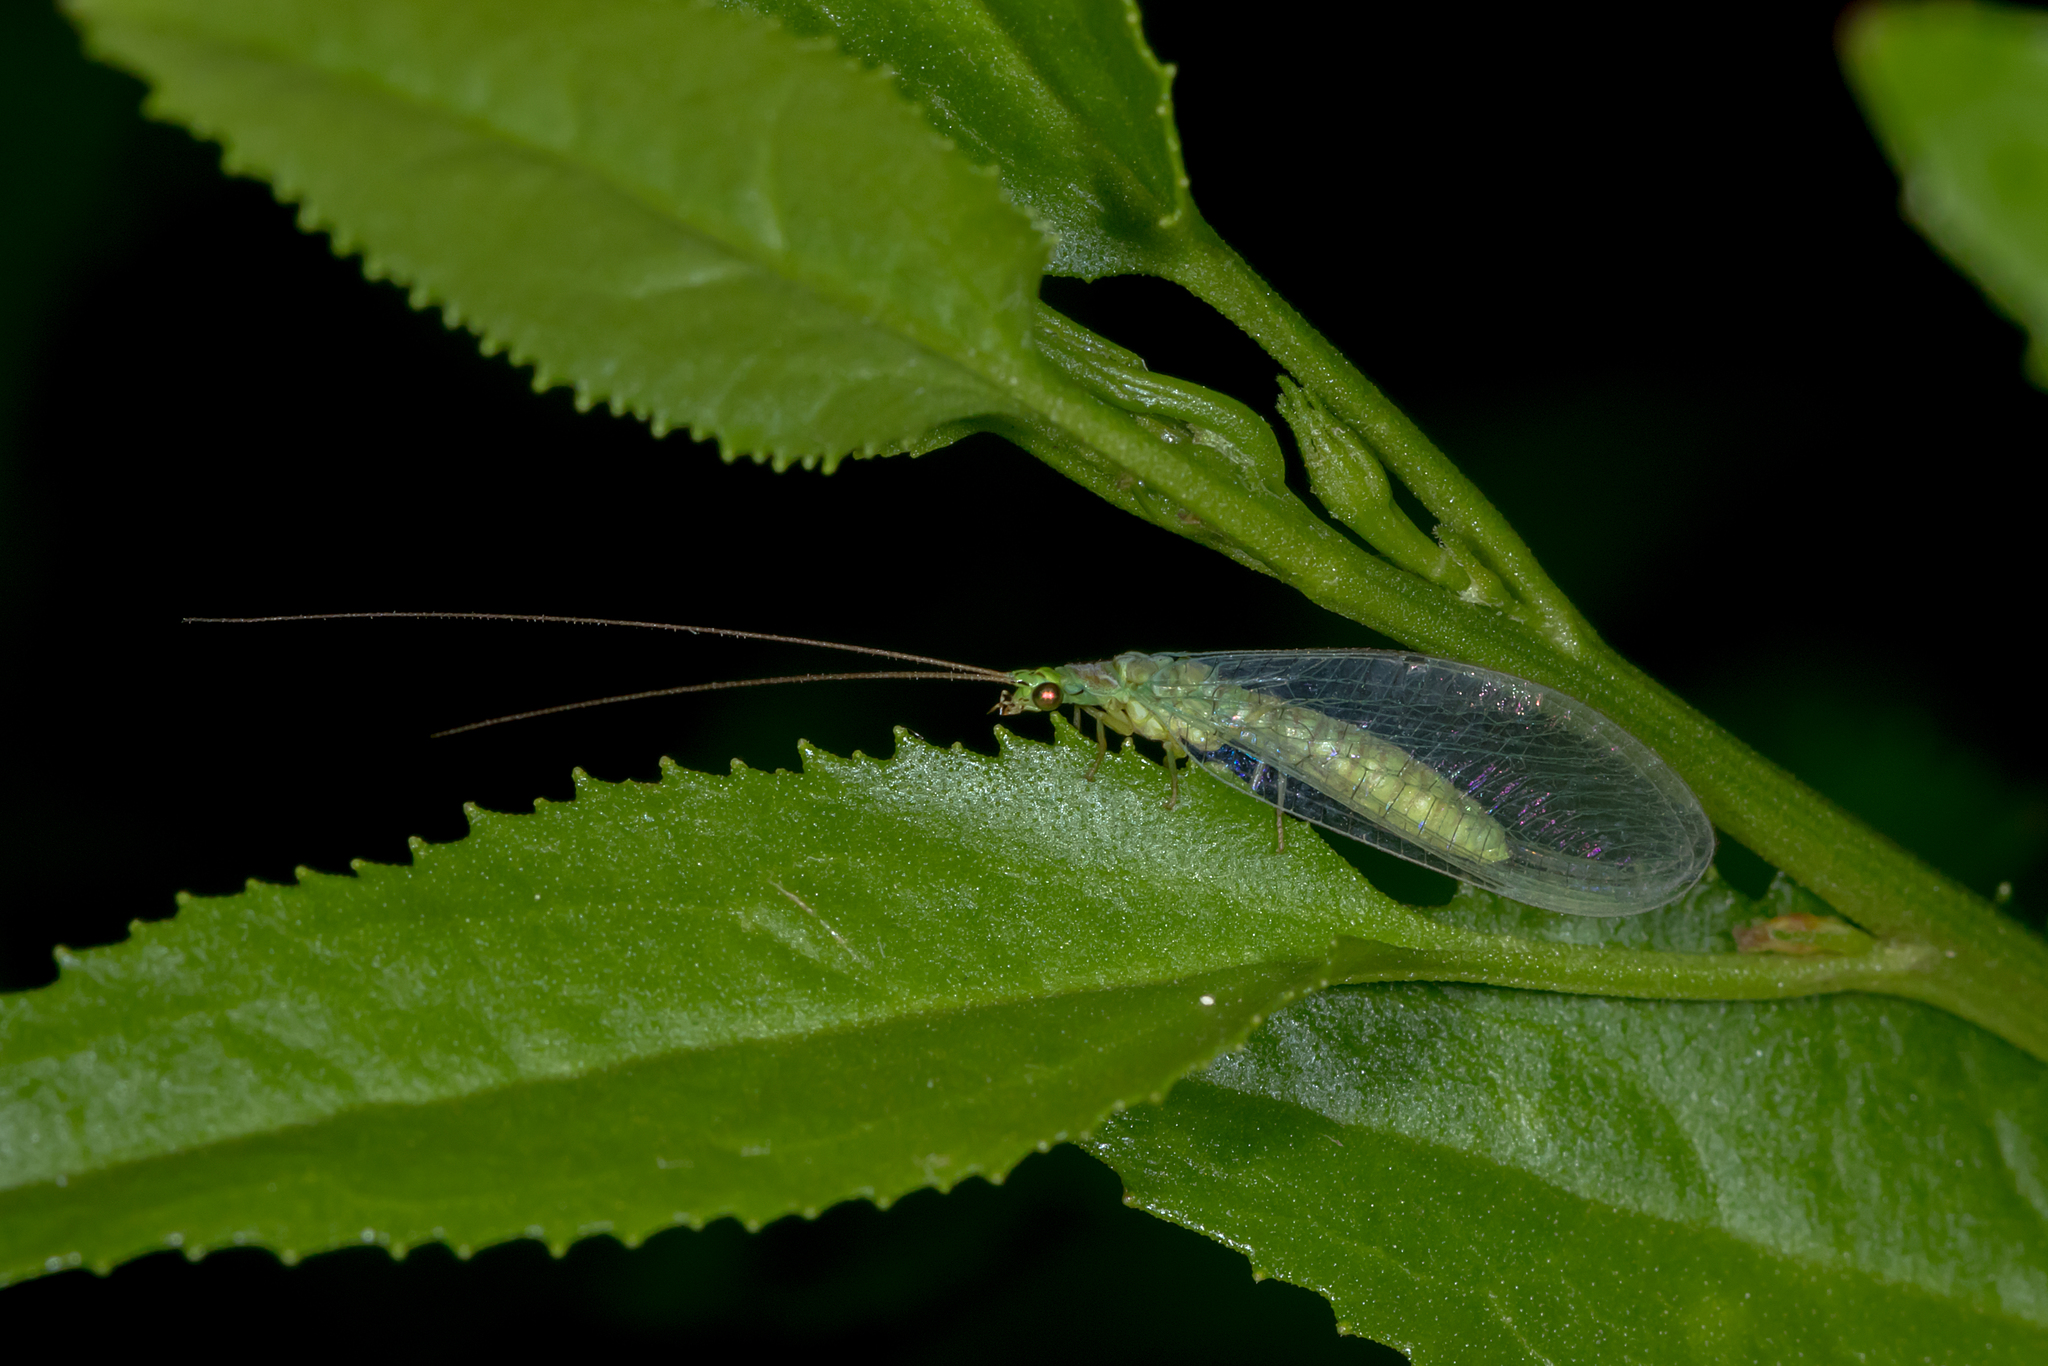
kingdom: Animalia
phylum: Arthropoda
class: Insecta
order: Neuroptera
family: Chrysopidae
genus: Mallada
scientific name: Mallada signatus
